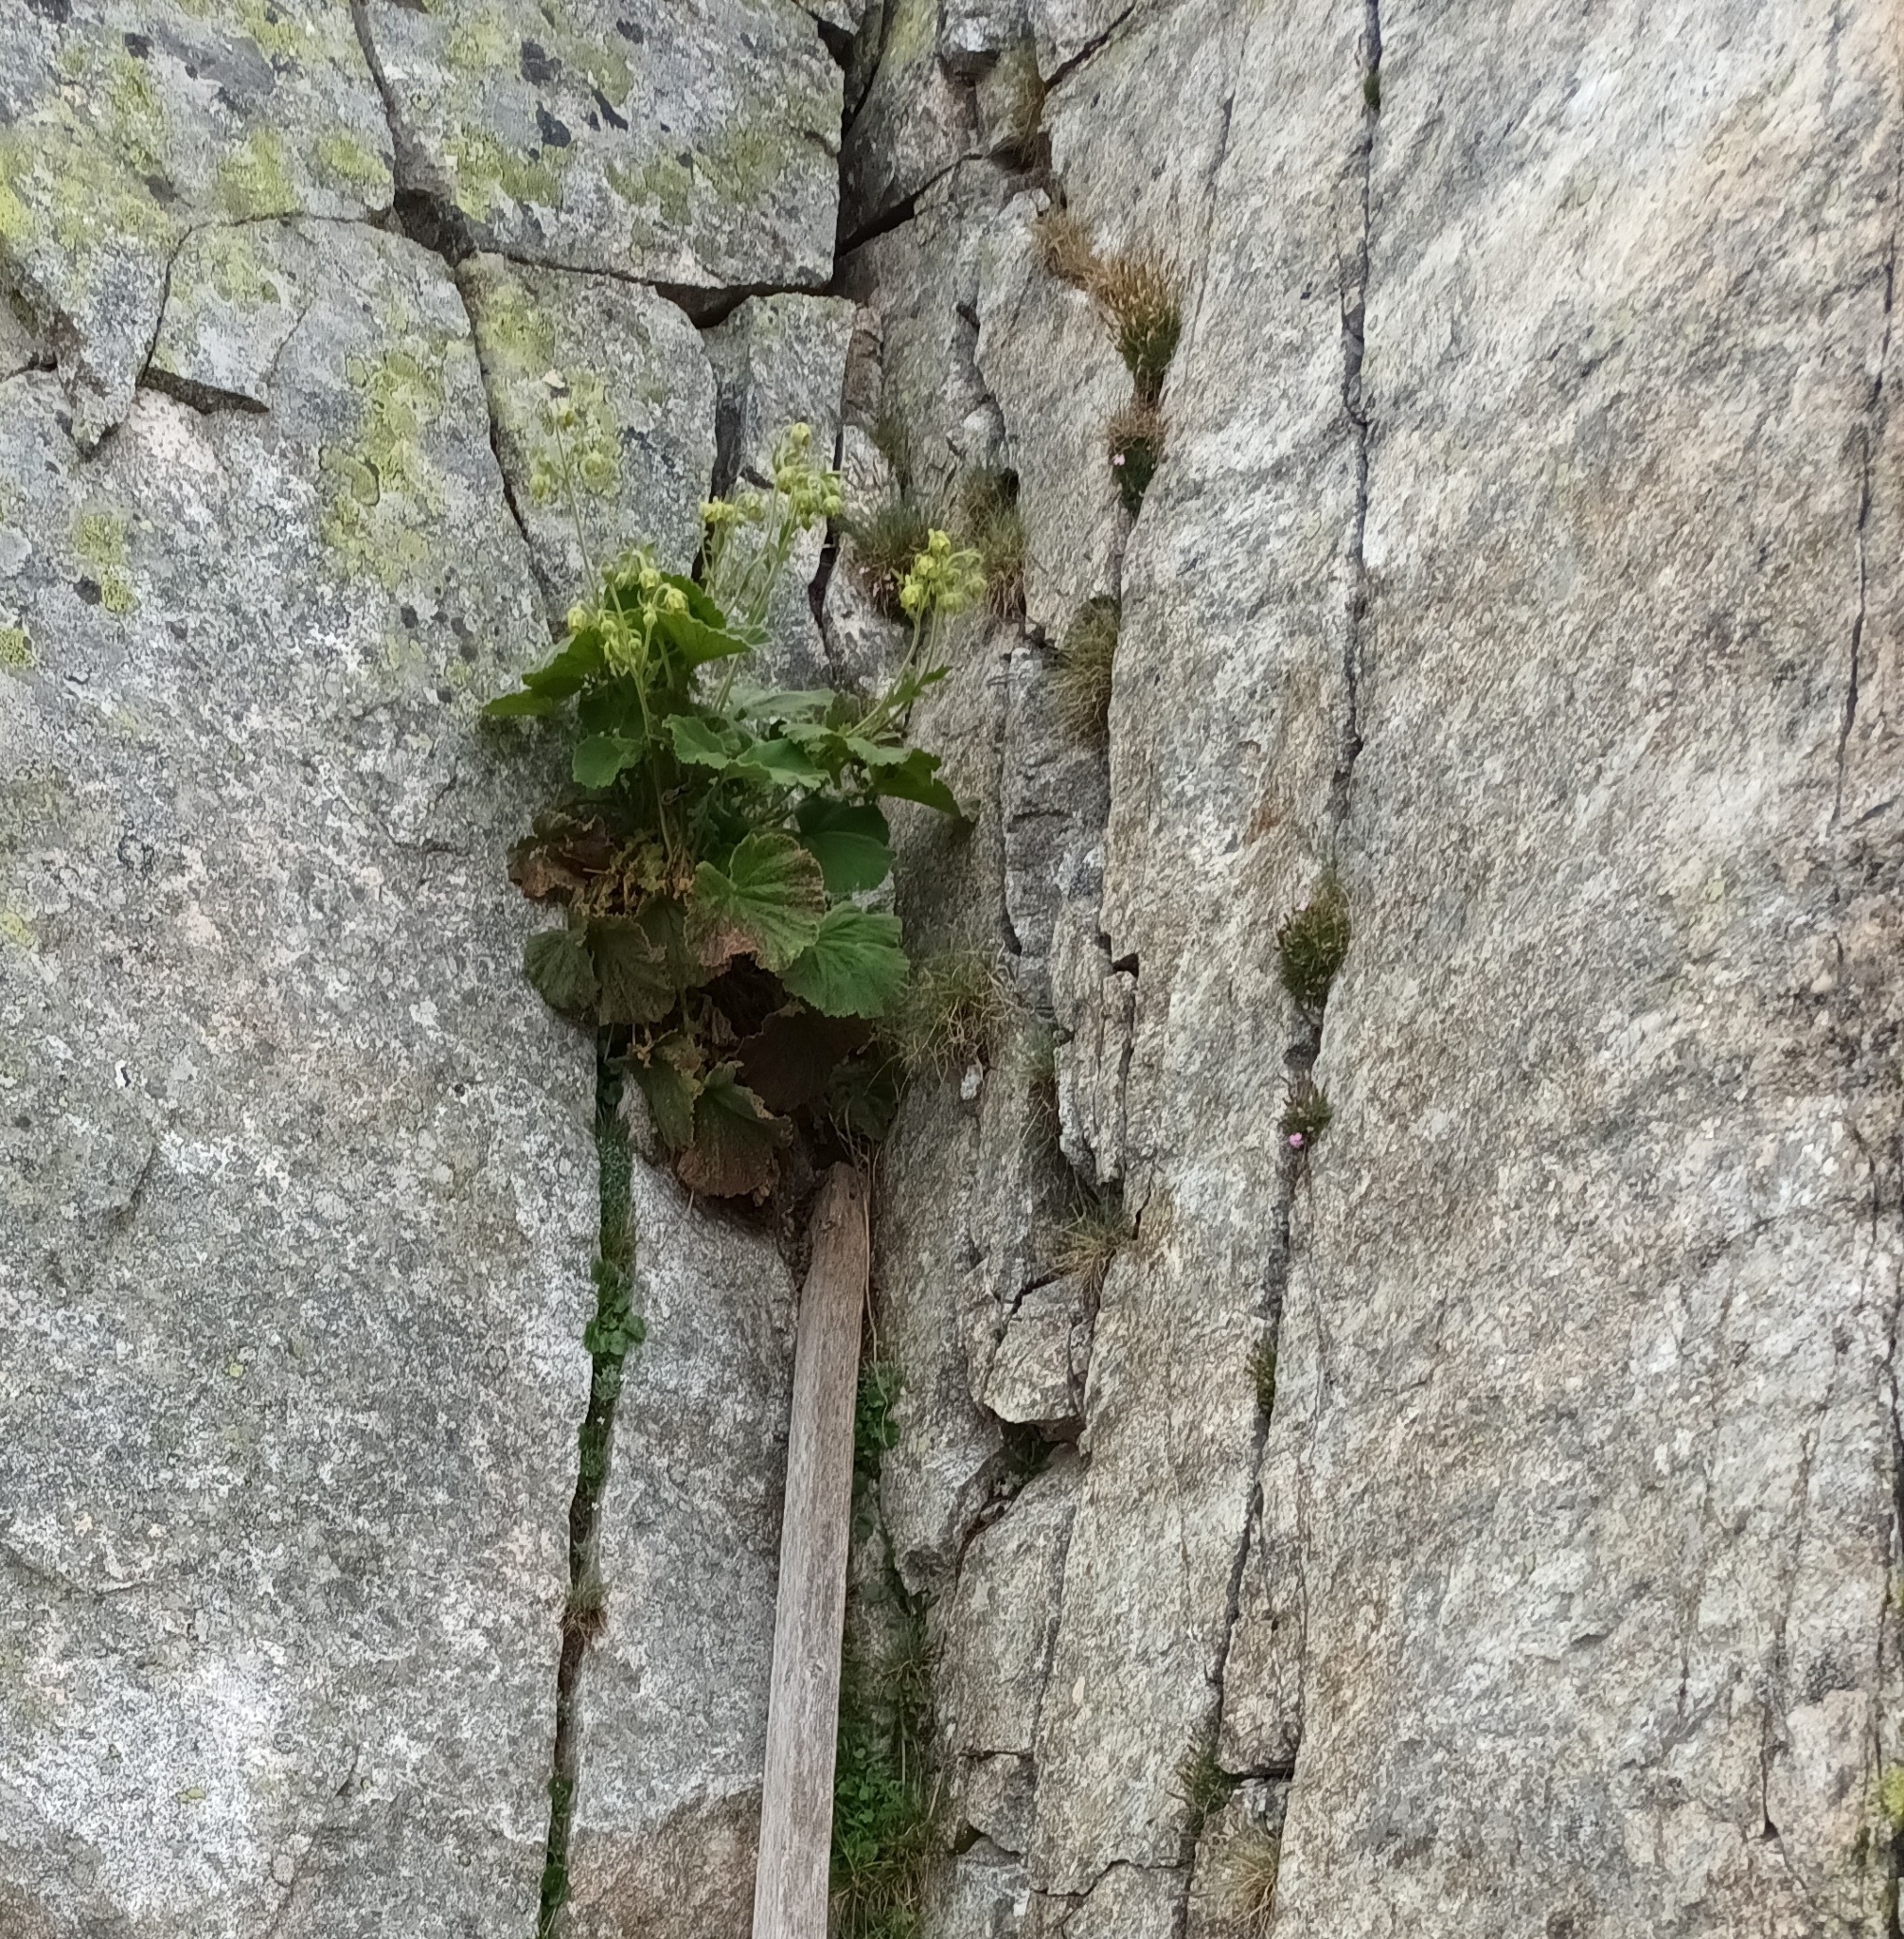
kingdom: Plantae
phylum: Tracheophyta
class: Magnoliopsida
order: Rosales
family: Rosaceae
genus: Geum
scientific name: Geum bulgaricum
